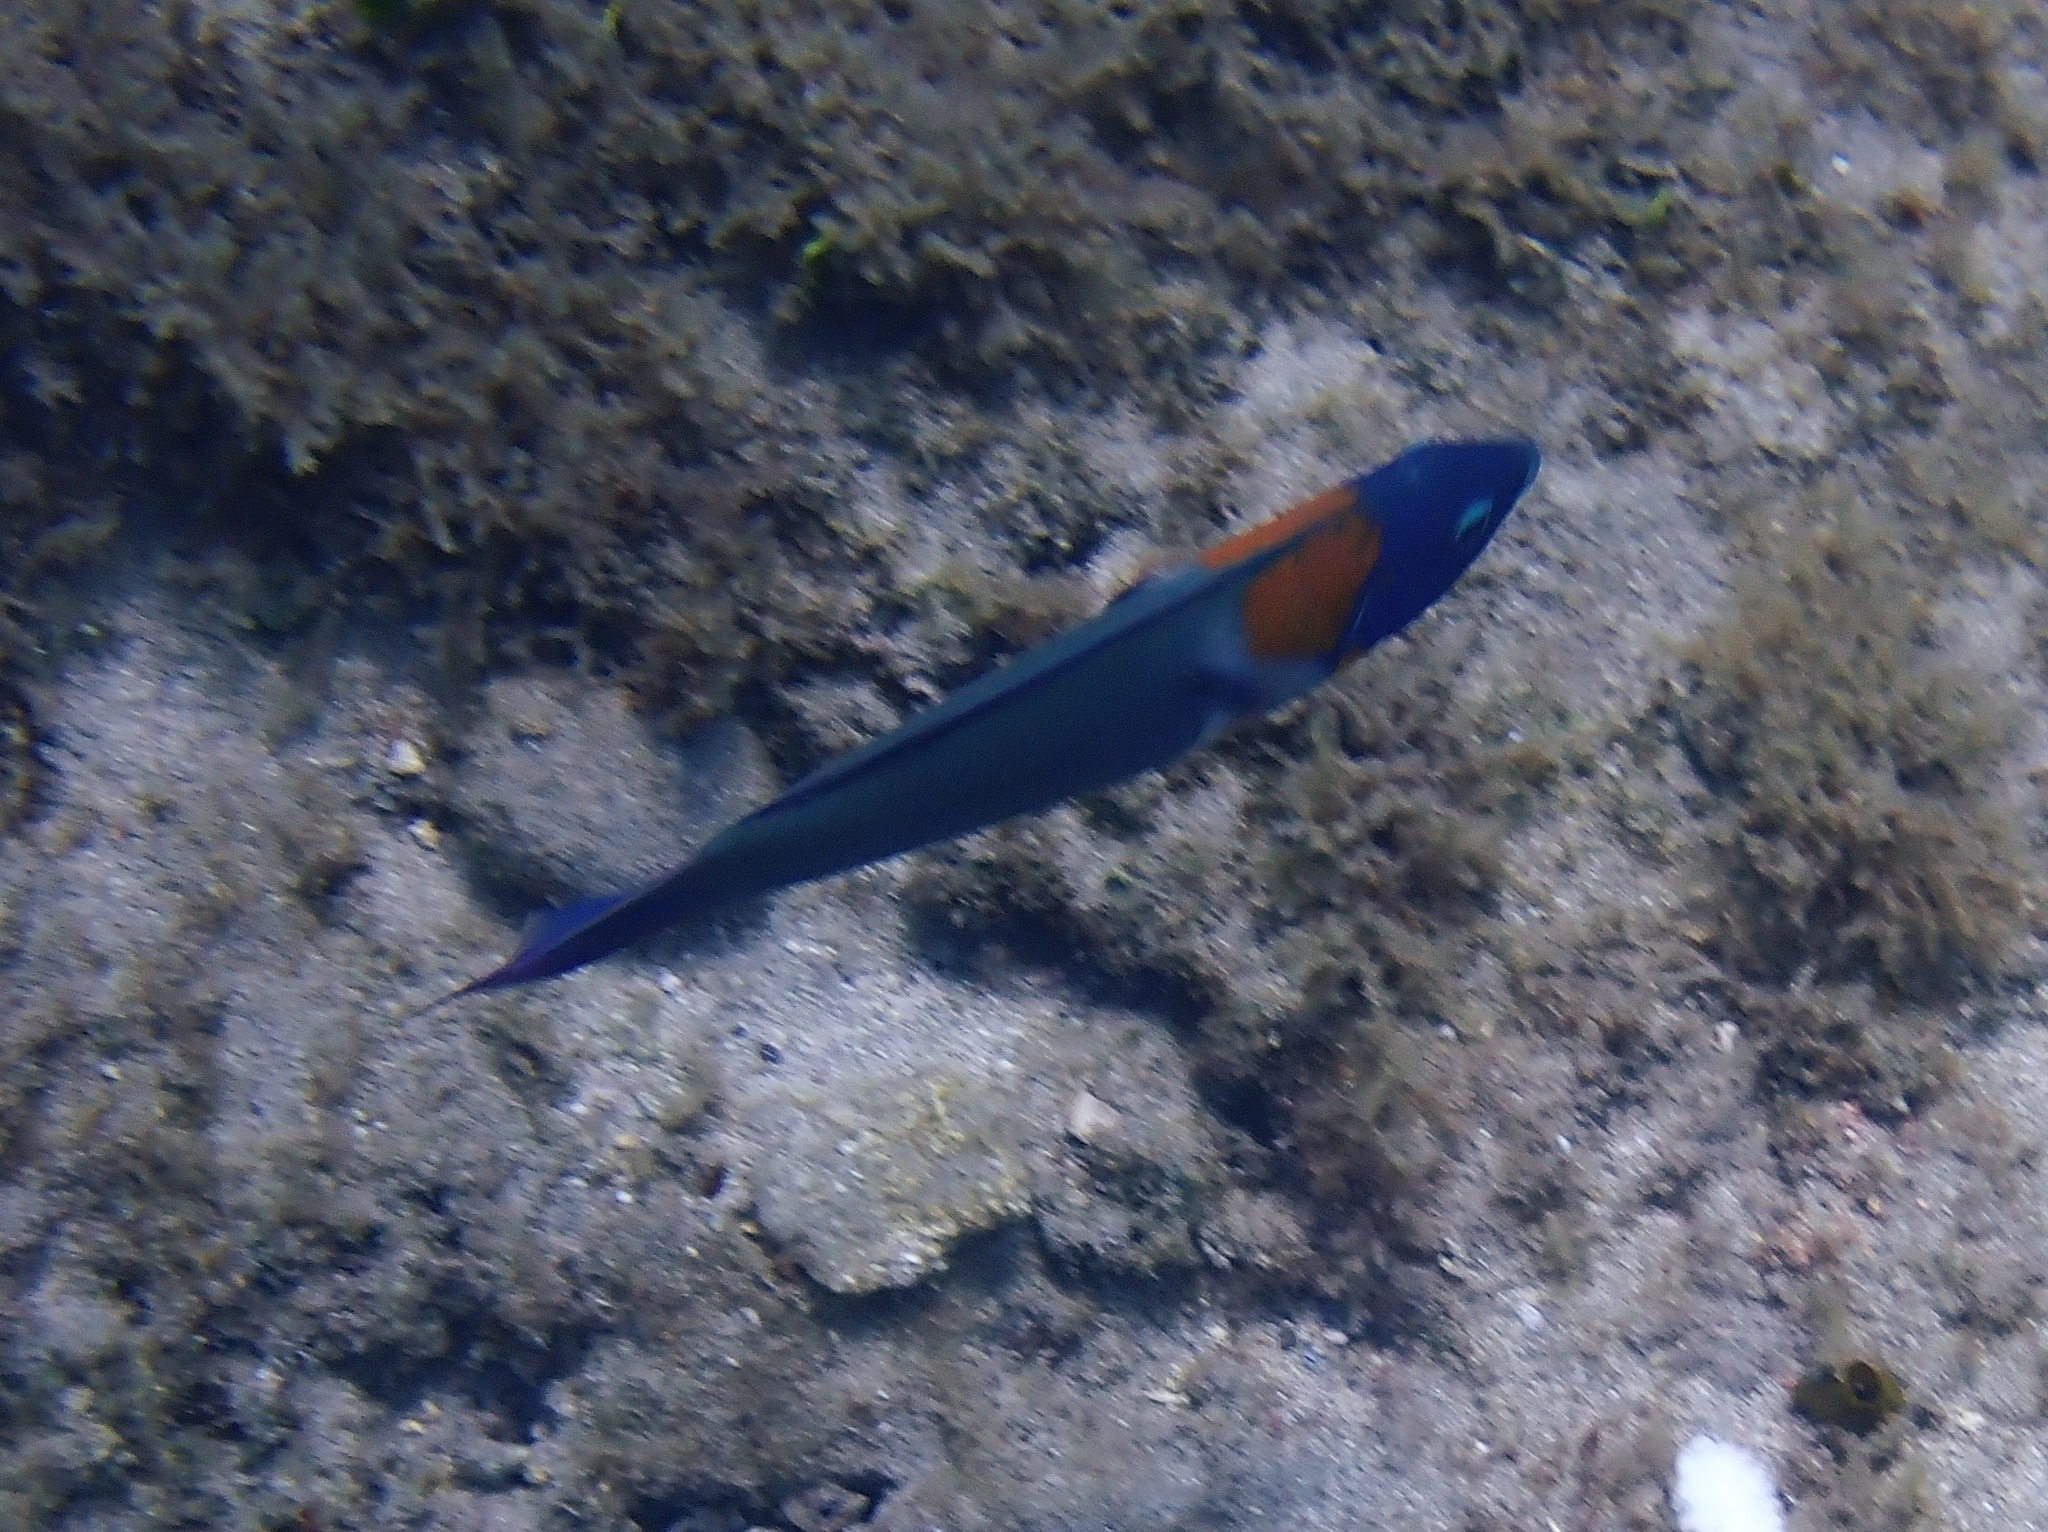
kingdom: Animalia
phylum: Chordata
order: Perciformes
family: Labridae
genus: Thalassoma
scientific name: Thalassoma duperrey
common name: Saddle wrasse
